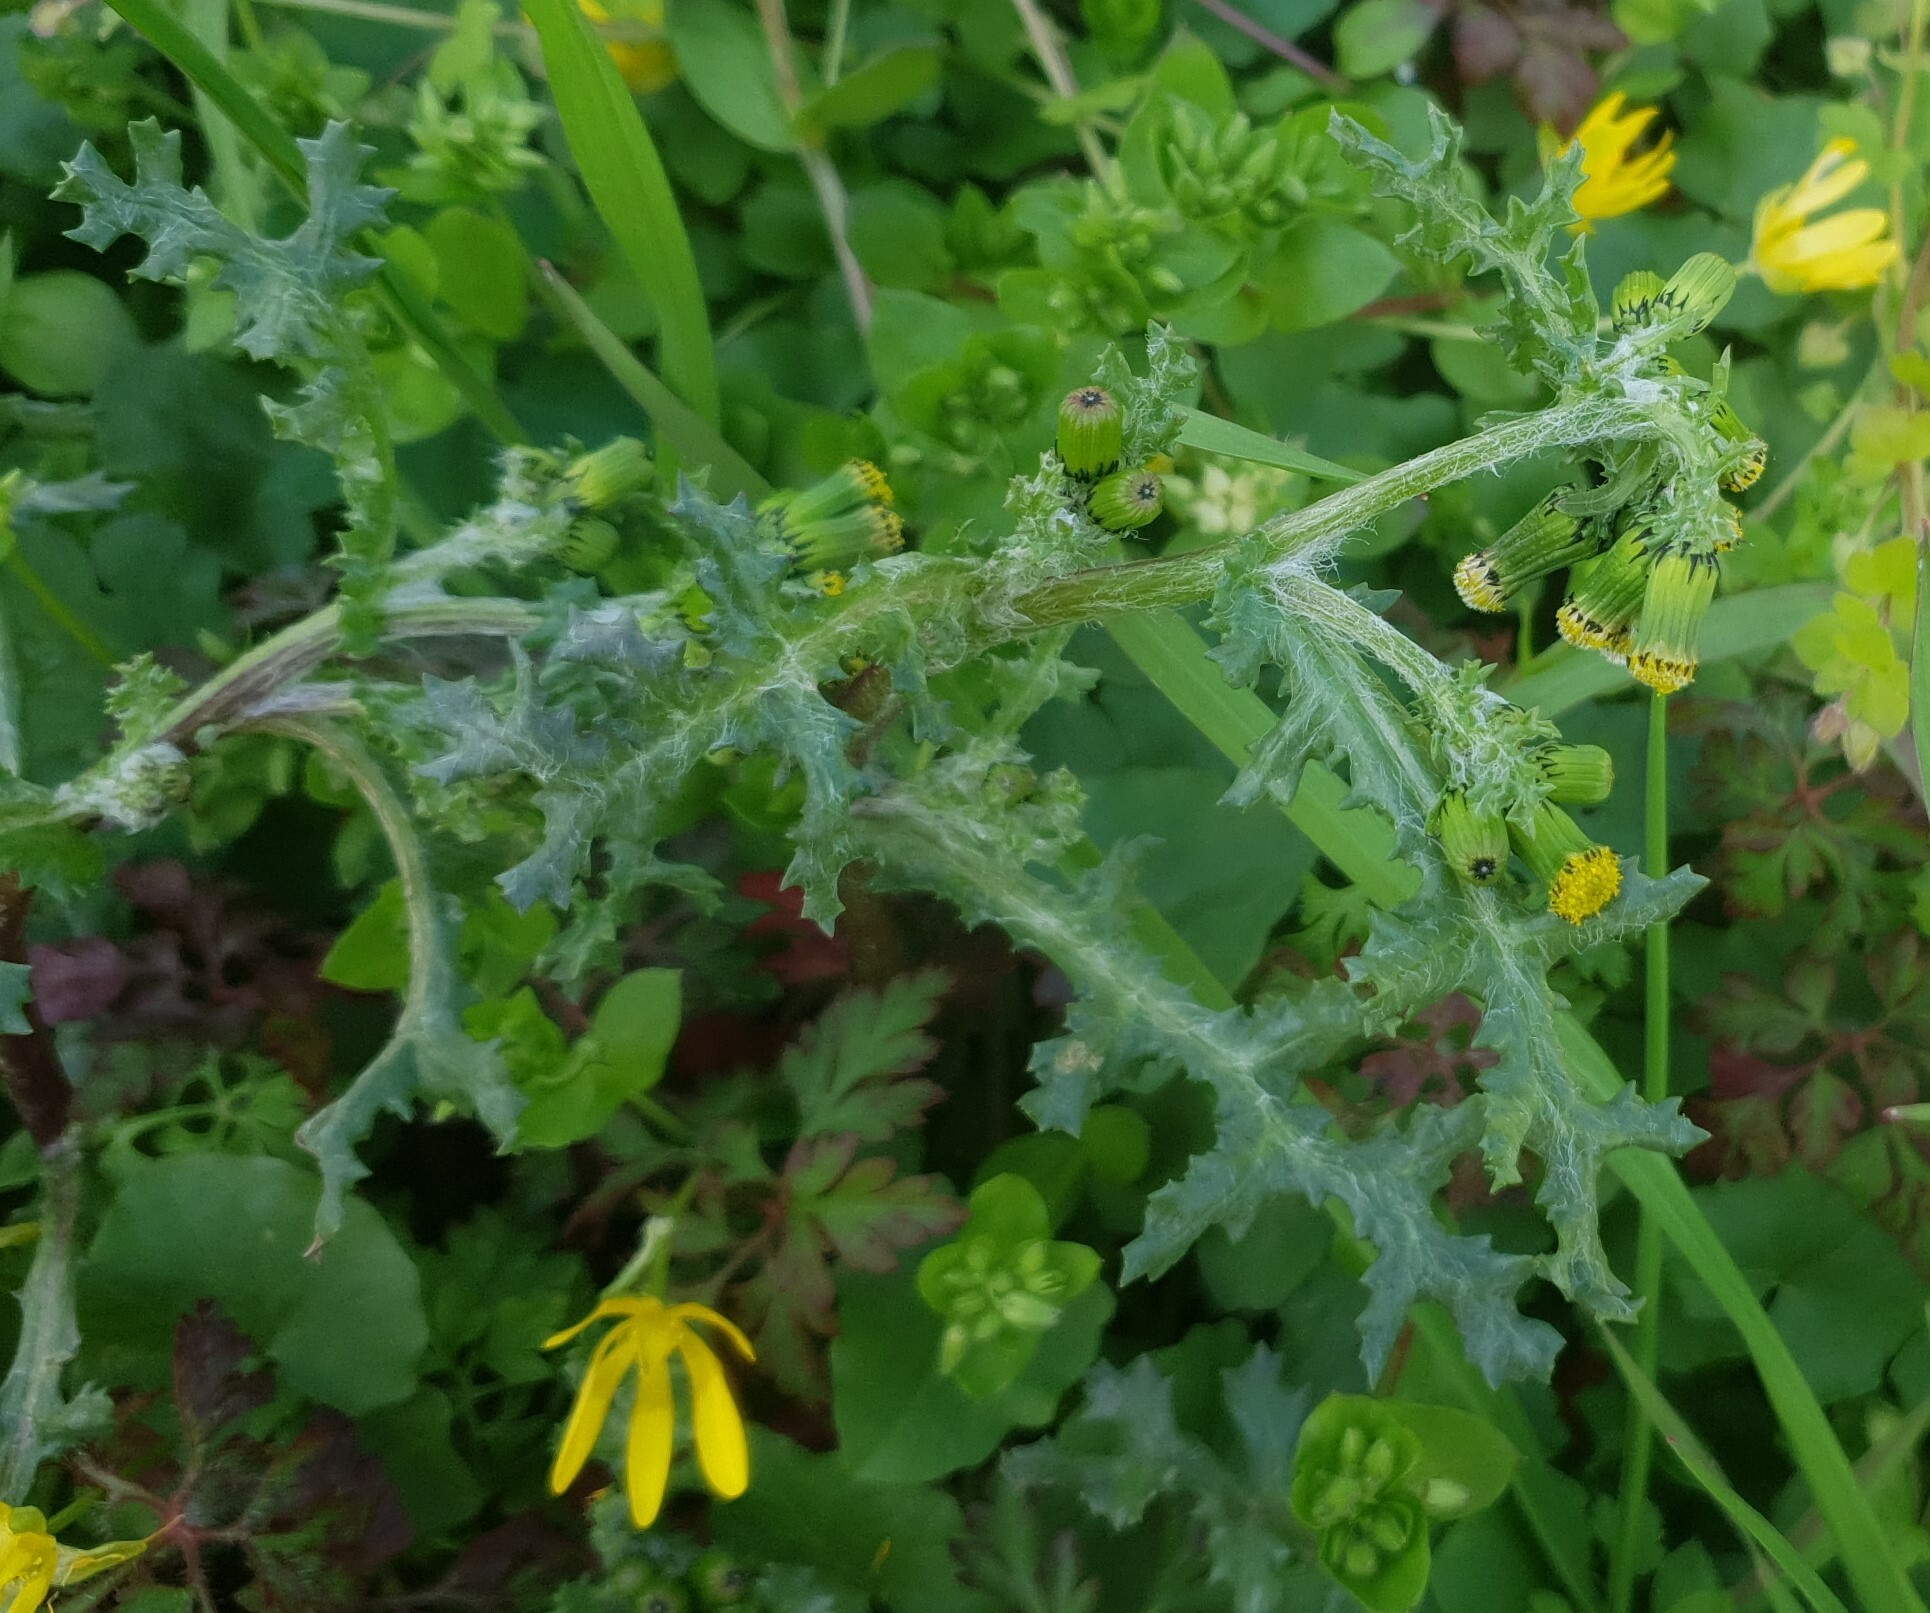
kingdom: Plantae
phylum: Tracheophyta
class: Magnoliopsida
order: Asterales
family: Asteraceae
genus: Senecio
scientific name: Senecio vulgaris
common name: Old-man-in-the-spring
